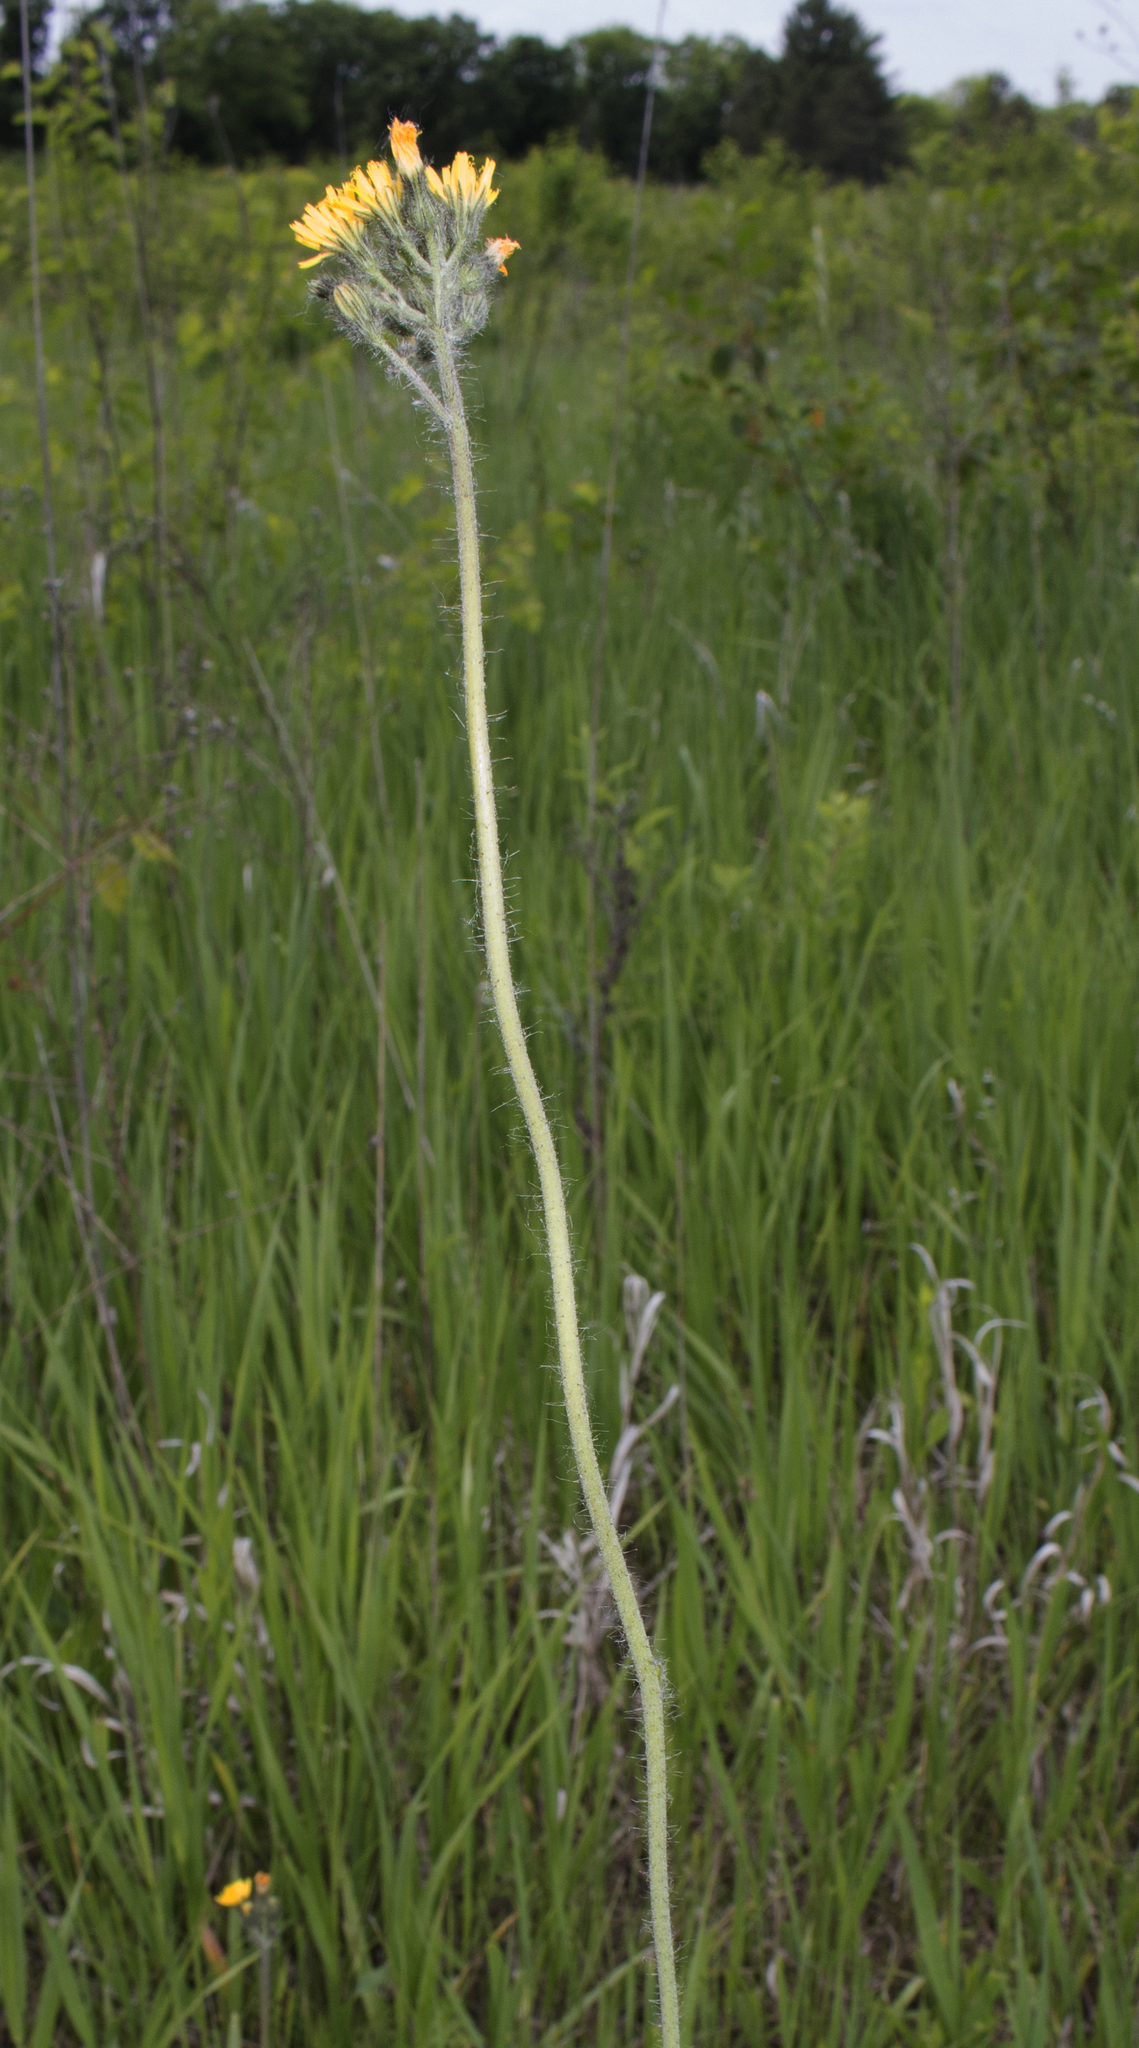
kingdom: Plantae
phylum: Tracheophyta
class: Magnoliopsida
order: Asterales
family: Asteraceae
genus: Pilosella
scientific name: Pilosella caespitosa
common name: Yellow fox-and-cubs
